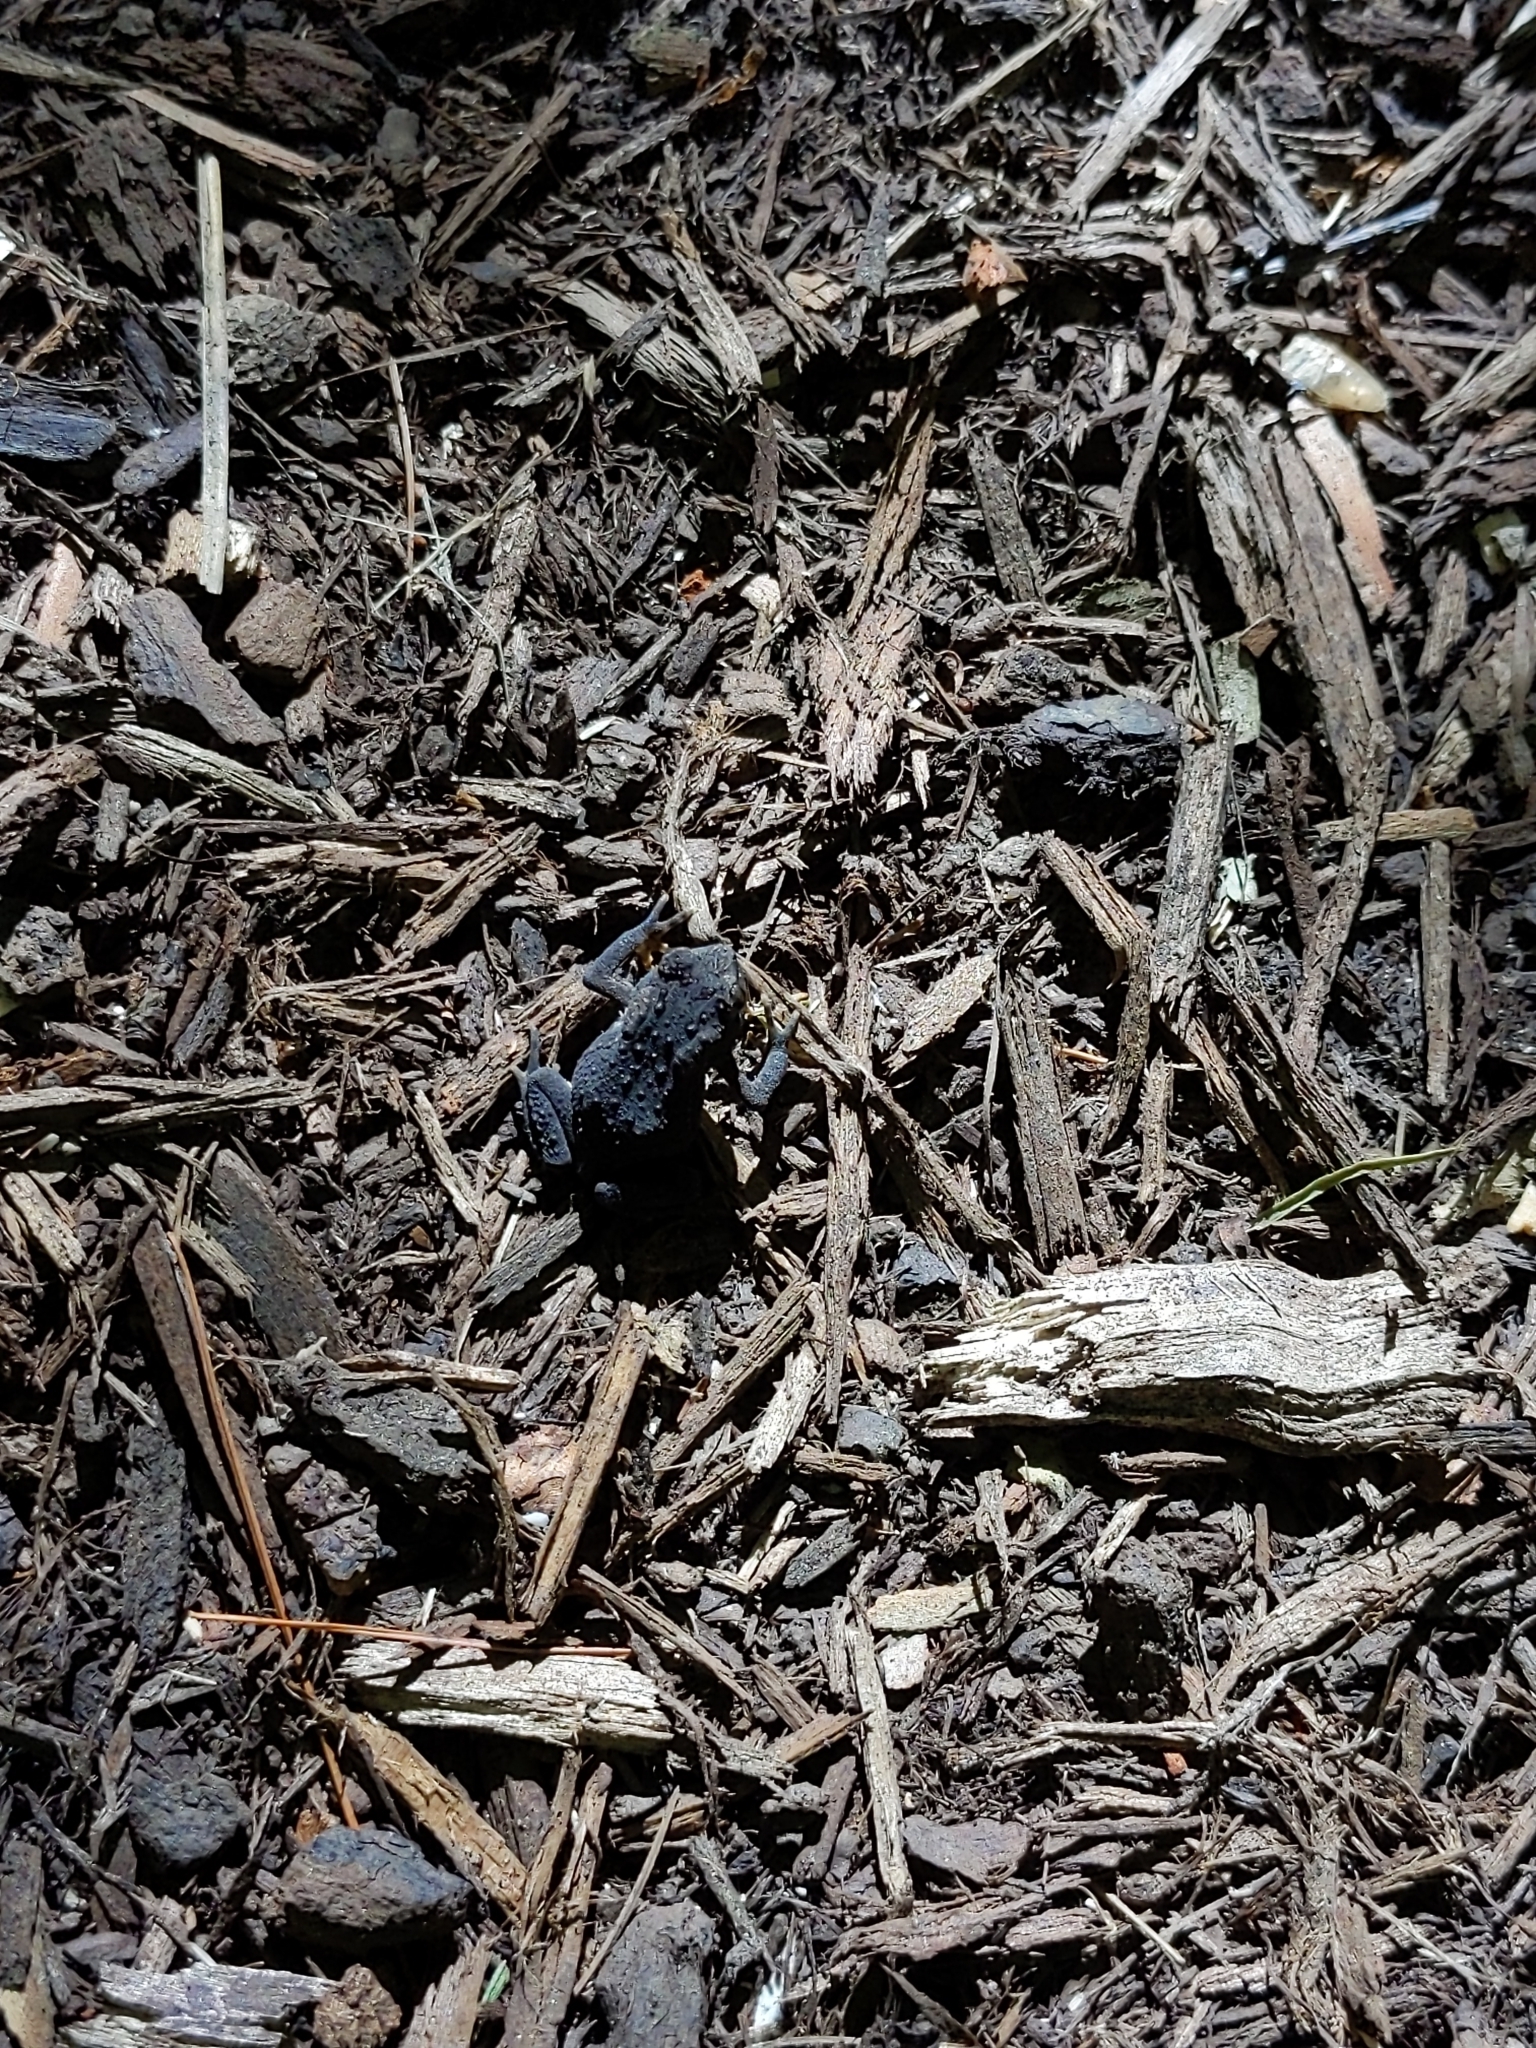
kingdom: Animalia
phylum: Chordata
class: Amphibia
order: Anura
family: Bufonidae
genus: Anaxyrus
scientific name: Anaxyrus americanus
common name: American toad
